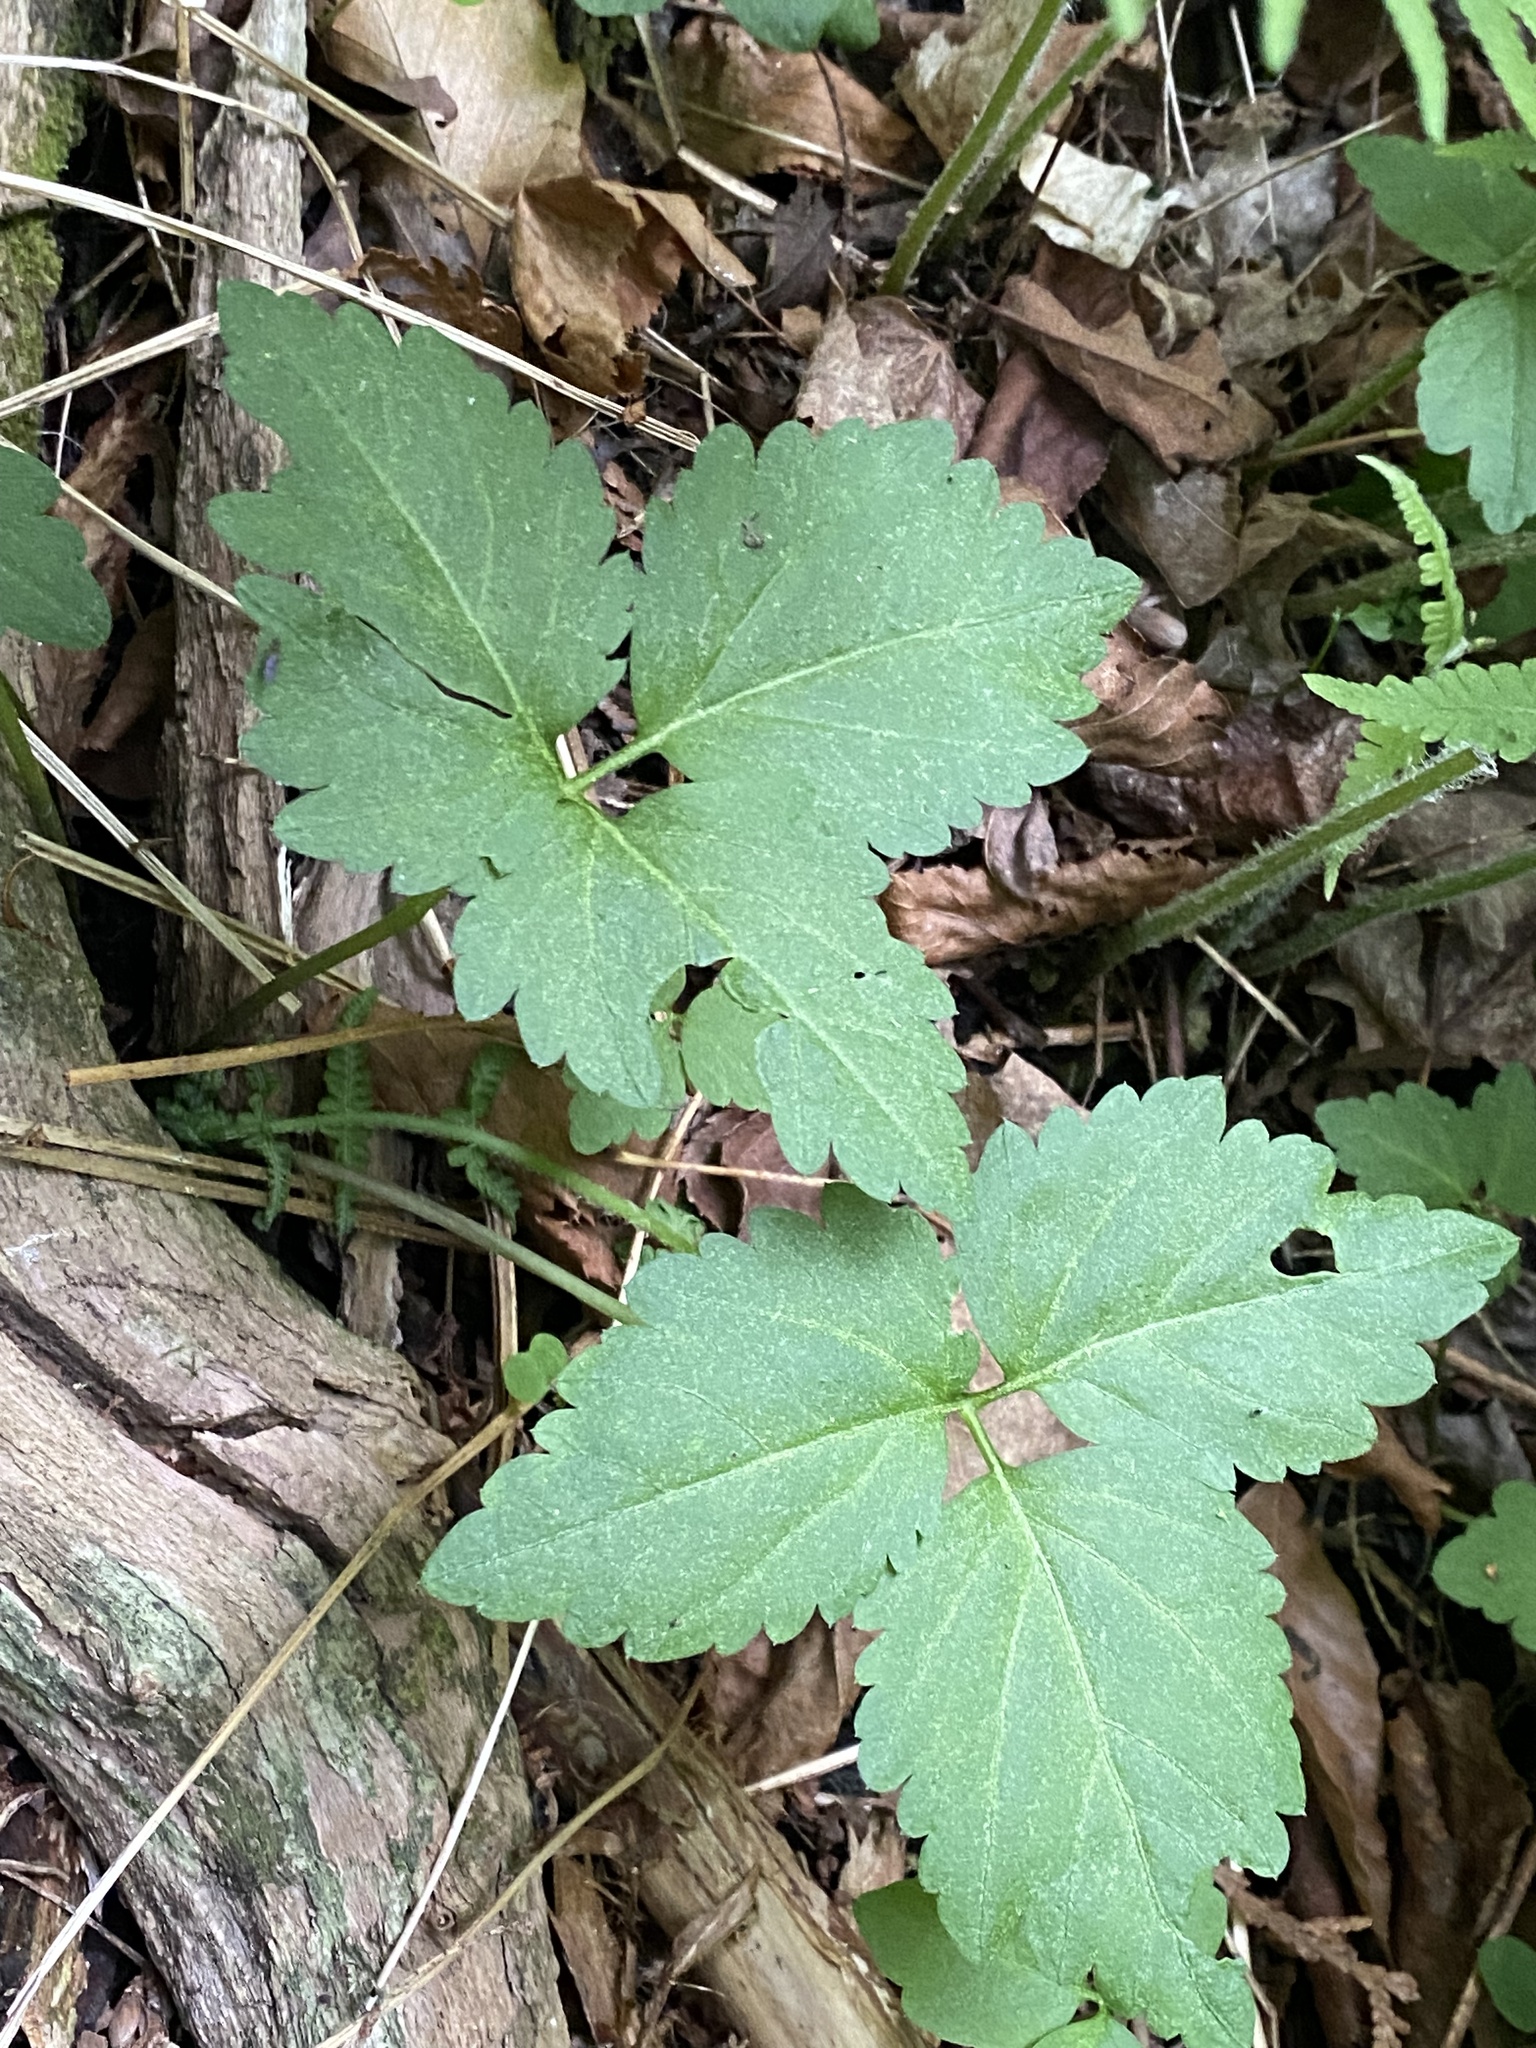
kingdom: Plantae
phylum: Tracheophyta
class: Magnoliopsida
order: Brassicales
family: Brassicaceae
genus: Cardamine
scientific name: Cardamine diphylla
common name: Broad-leaved toothwort
